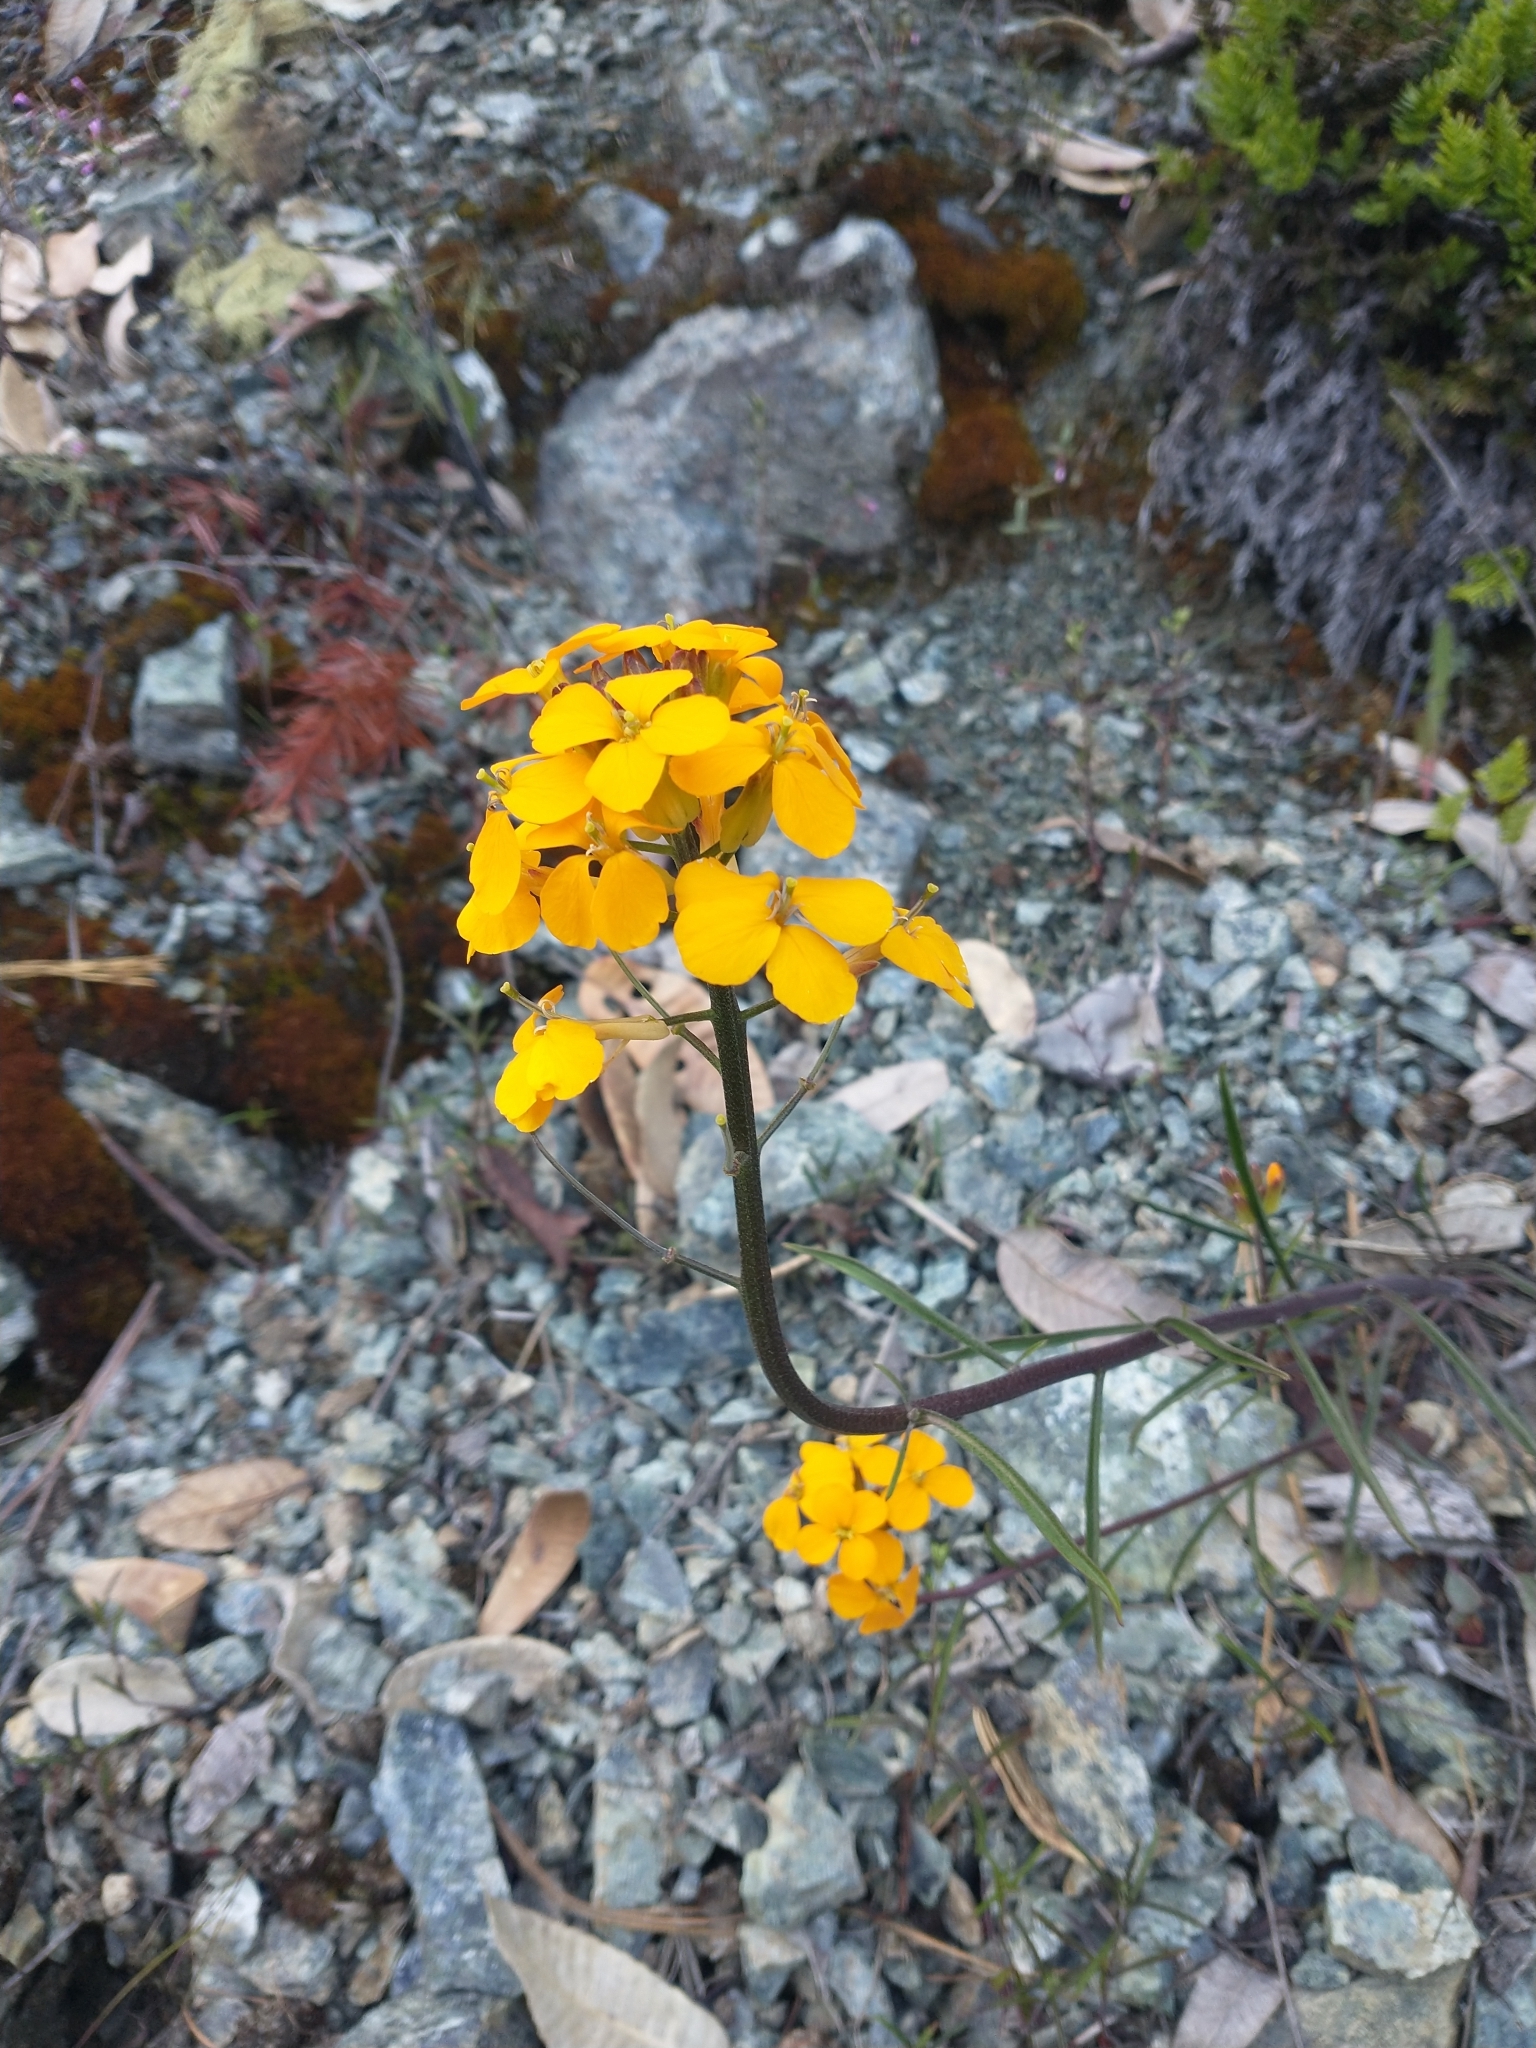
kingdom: Plantae
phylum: Tracheophyta
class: Magnoliopsida
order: Brassicales
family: Brassicaceae
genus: Erysimum
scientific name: Erysimum capitatum
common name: Western wallflower
